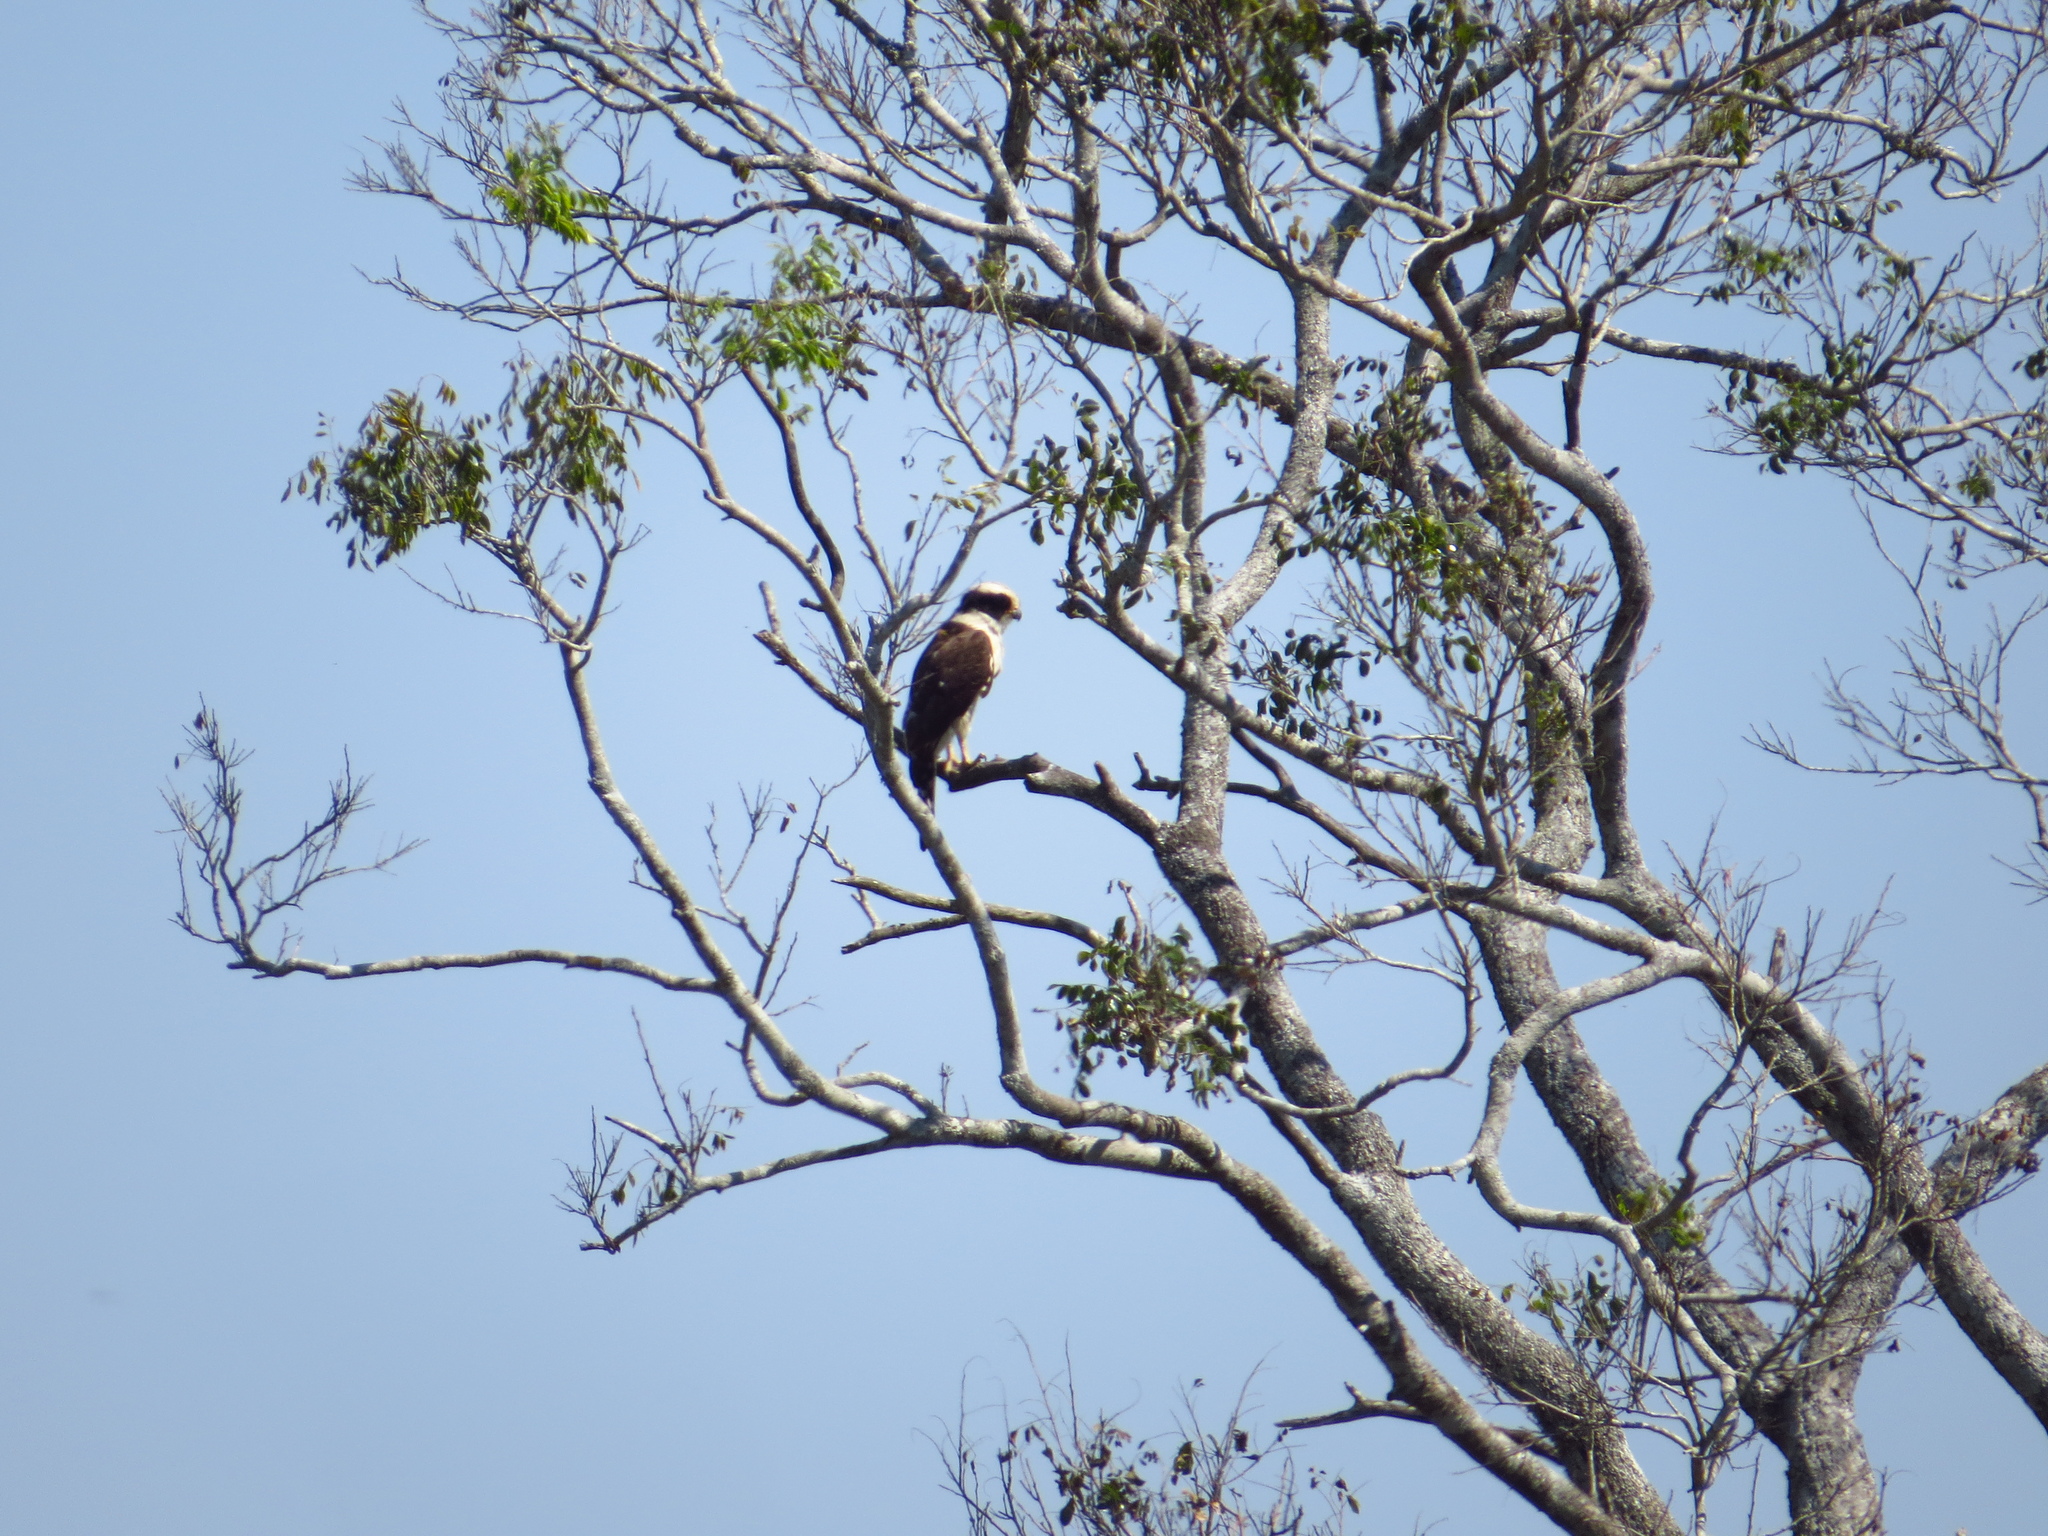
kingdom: Animalia
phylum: Chordata
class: Aves
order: Falconiformes
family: Falconidae
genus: Herpetotheres
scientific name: Herpetotheres cachinnans
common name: Laughing falcon
